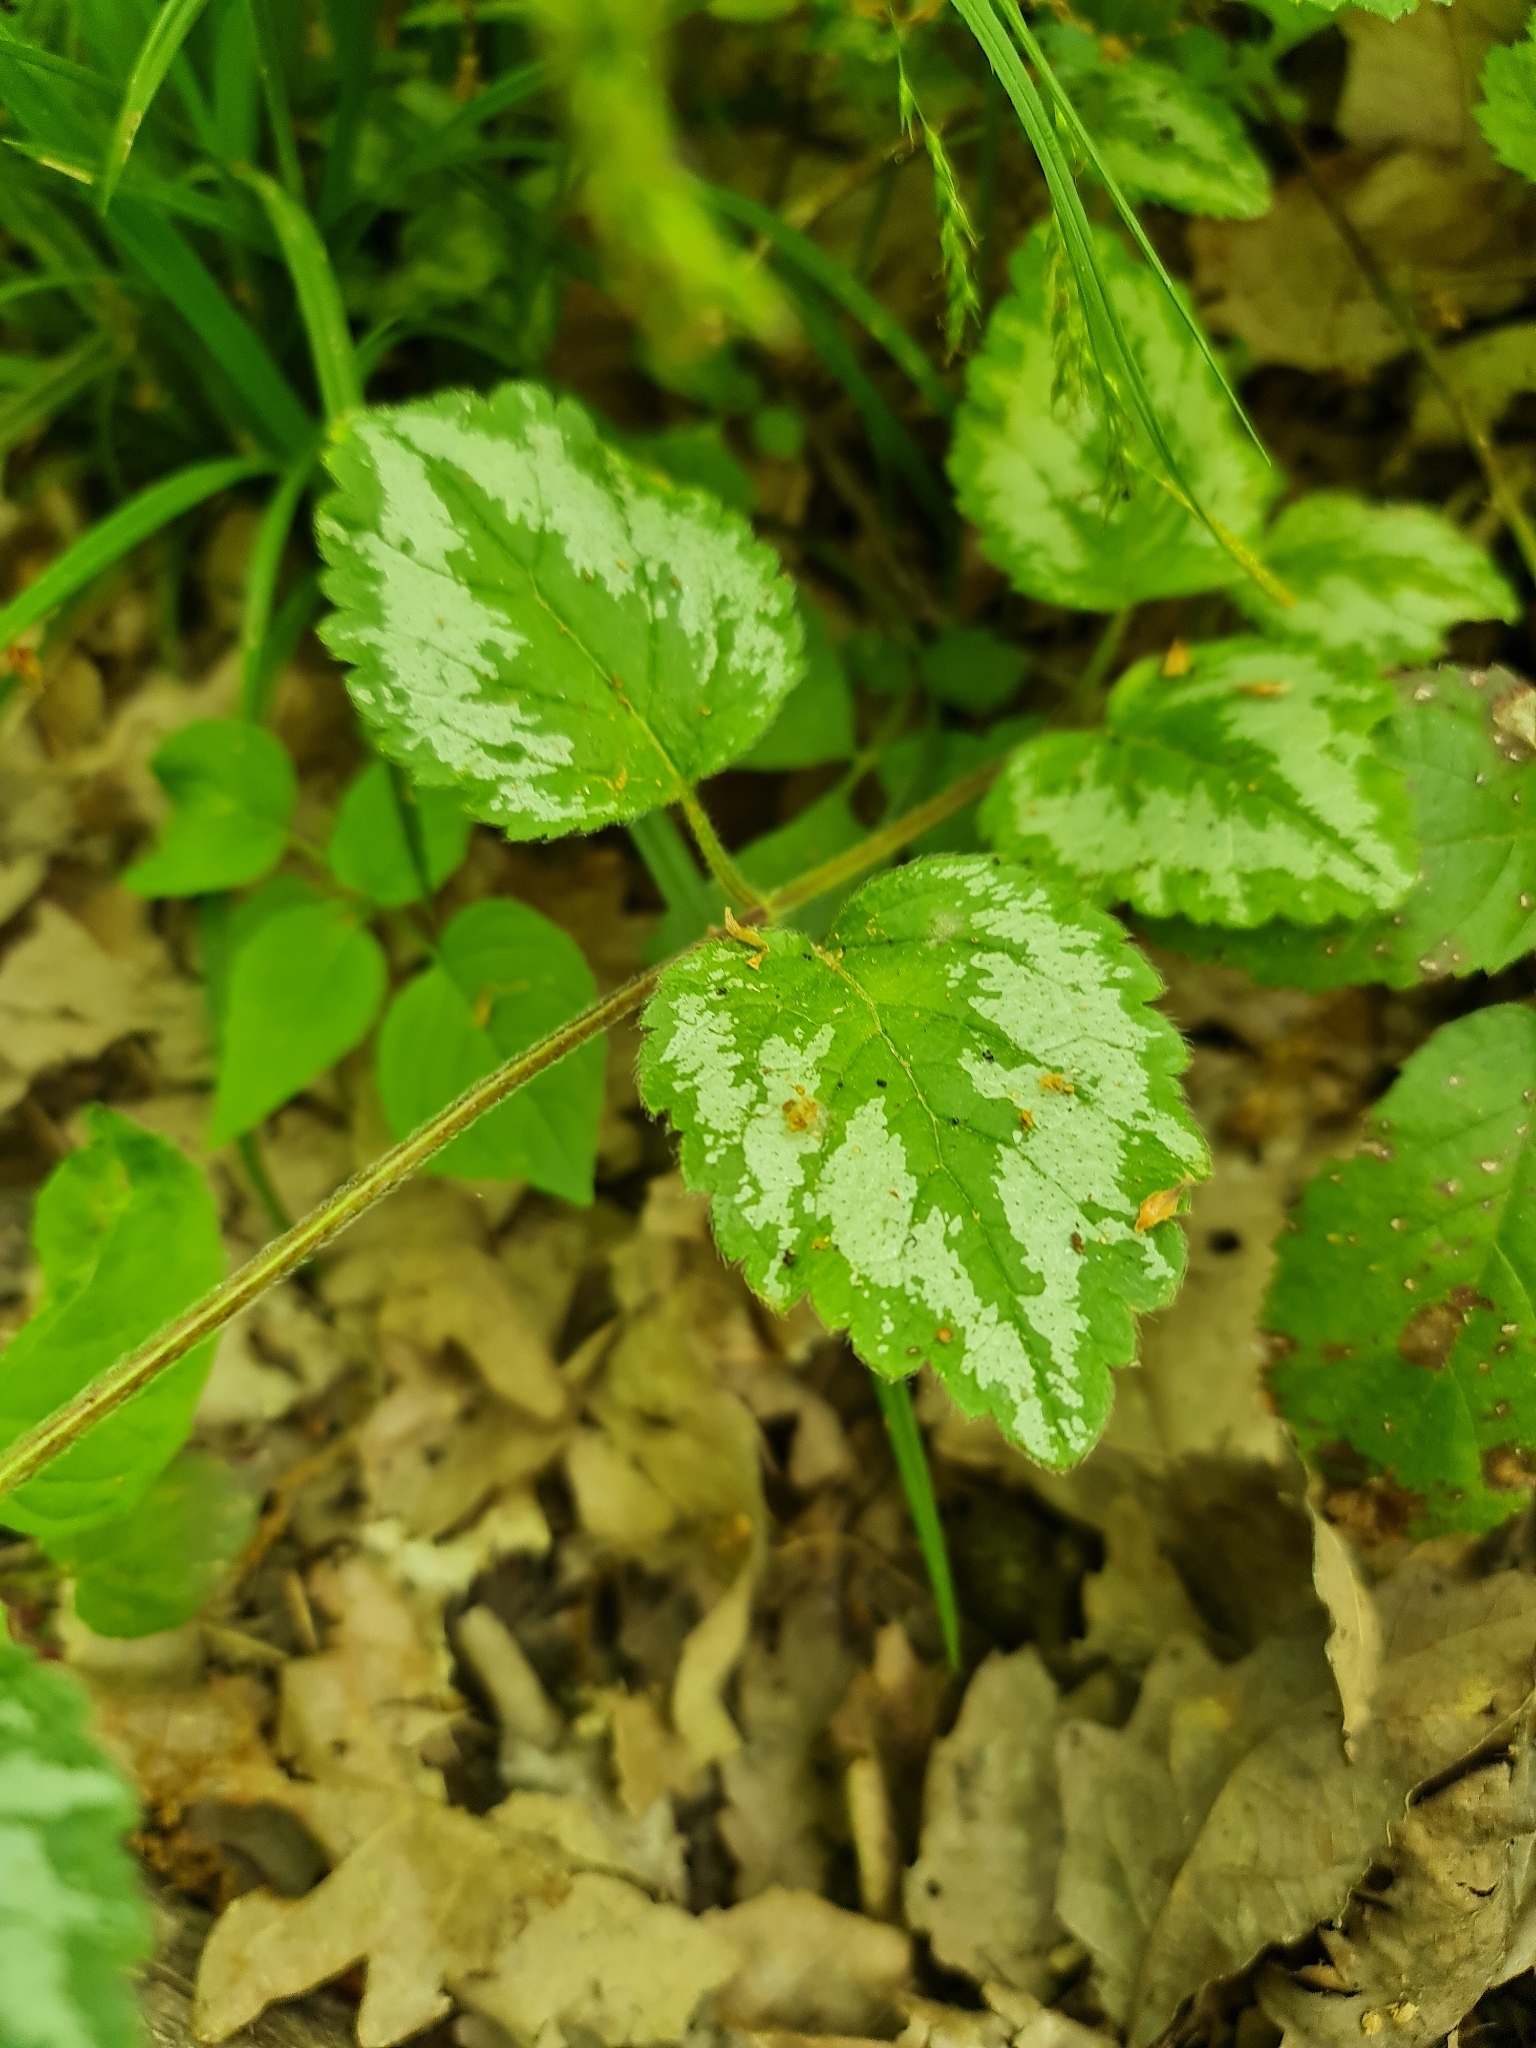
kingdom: Plantae
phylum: Tracheophyta
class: Magnoliopsida
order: Lamiales
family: Lamiaceae
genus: Lamium
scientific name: Lamium galeobdolon
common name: Yellow archangel
